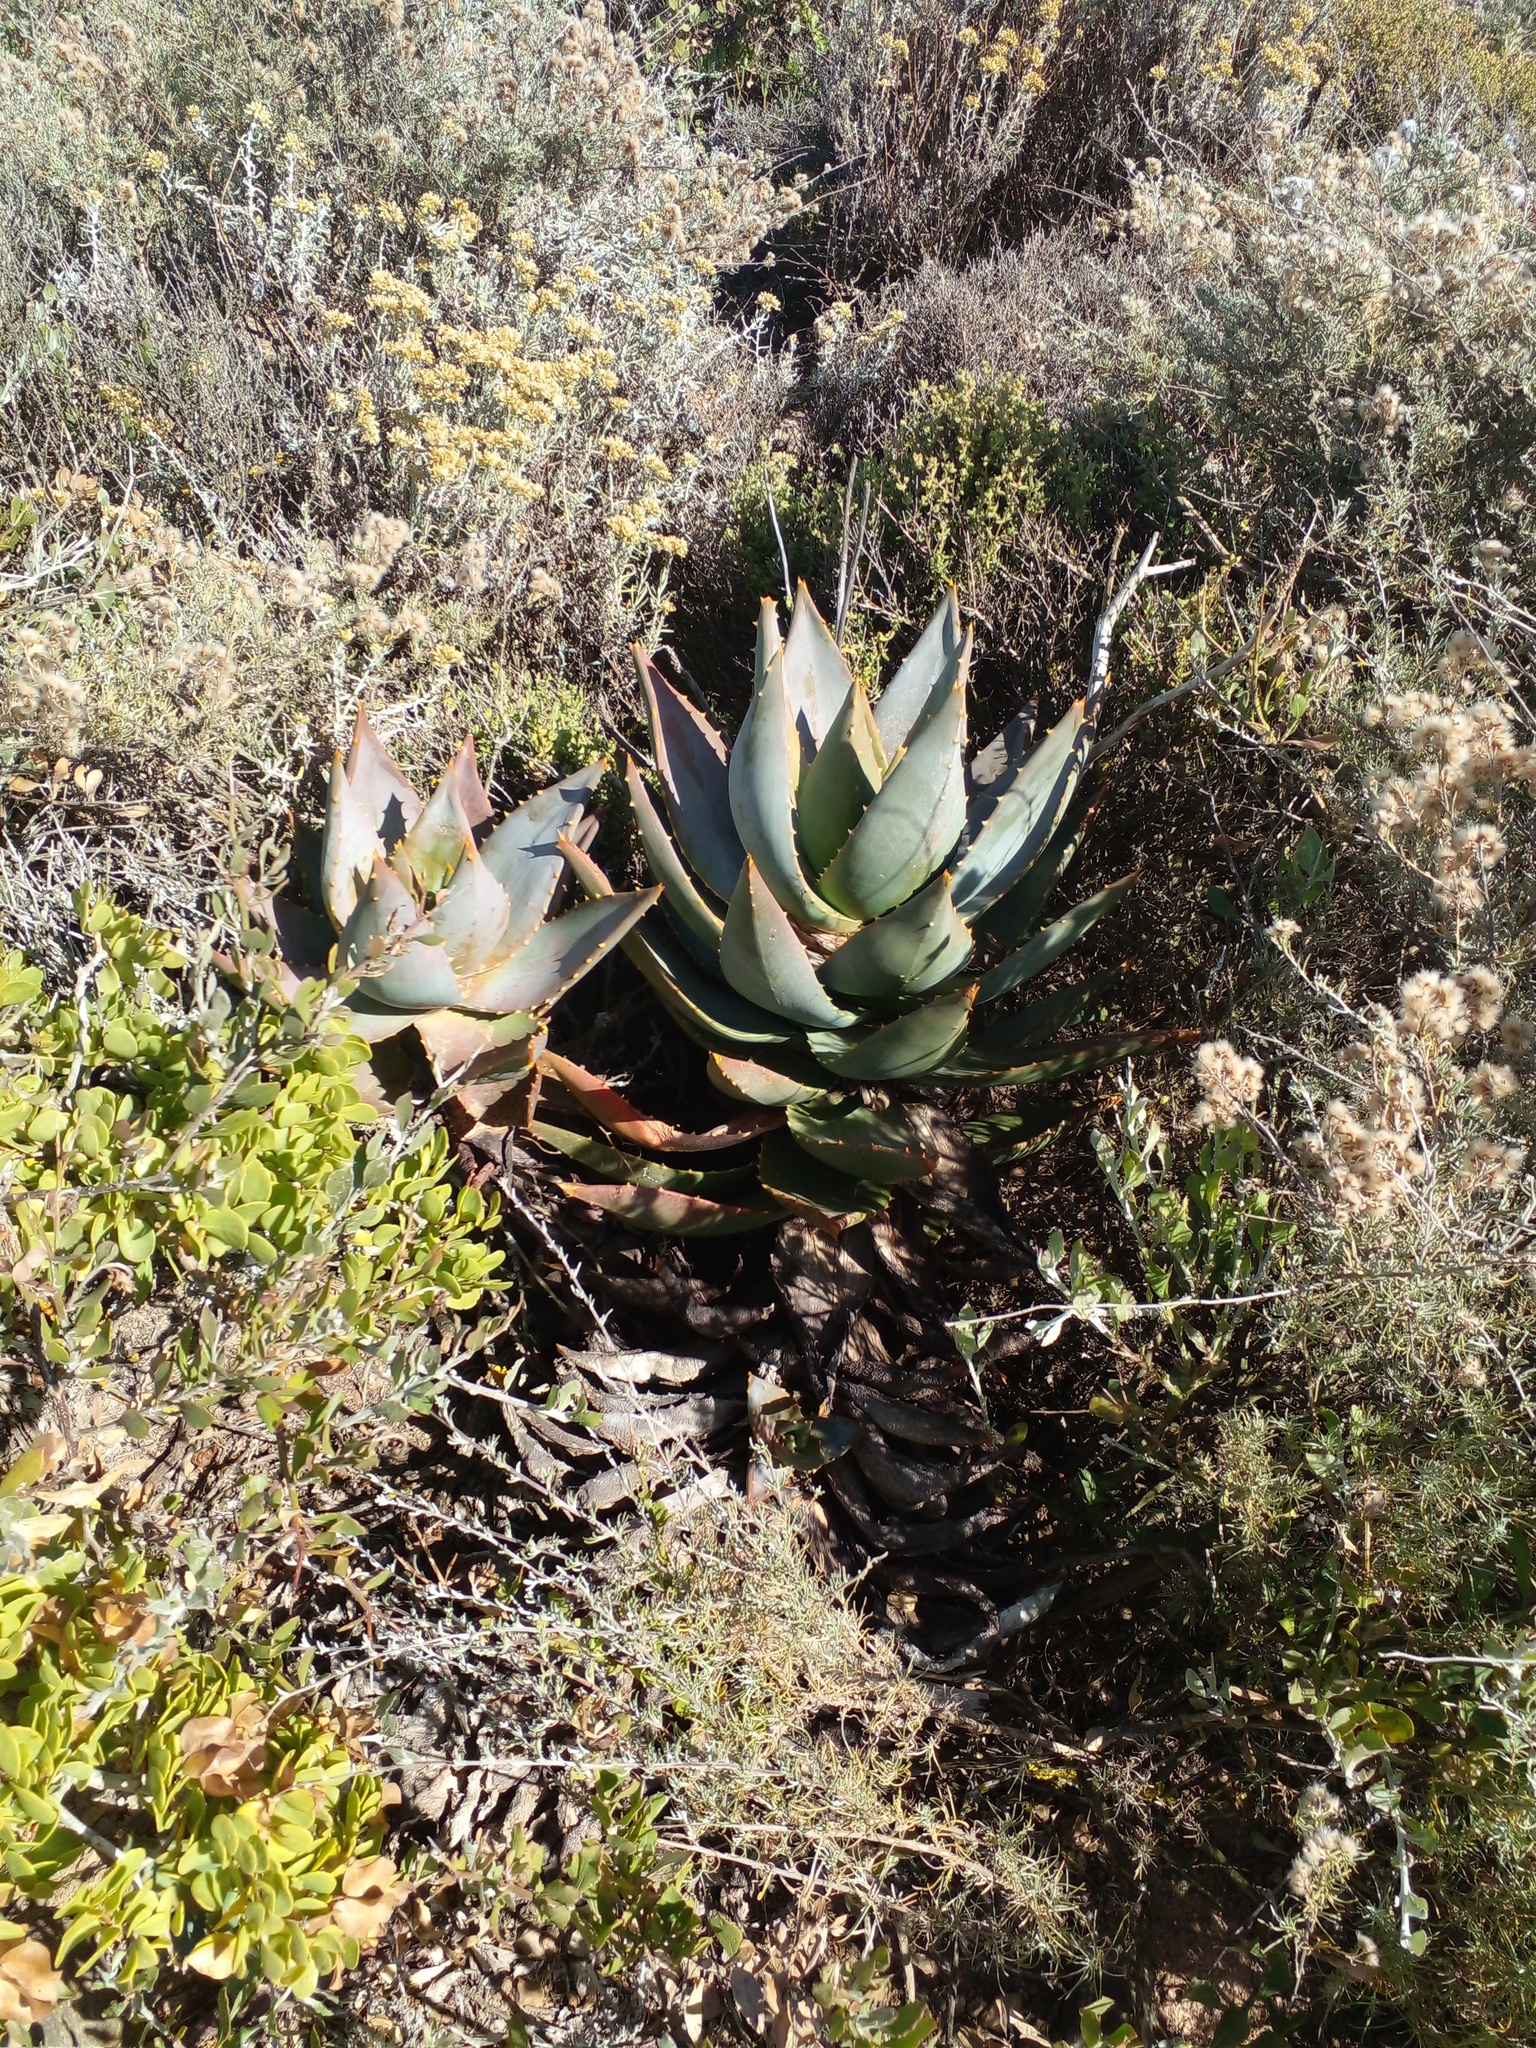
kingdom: Plantae
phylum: Tracheophyta
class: Liliopsida
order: Asparagales
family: Asphodelaceae
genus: Aloe
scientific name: Aloe perfoliata
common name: Mitra aloe
